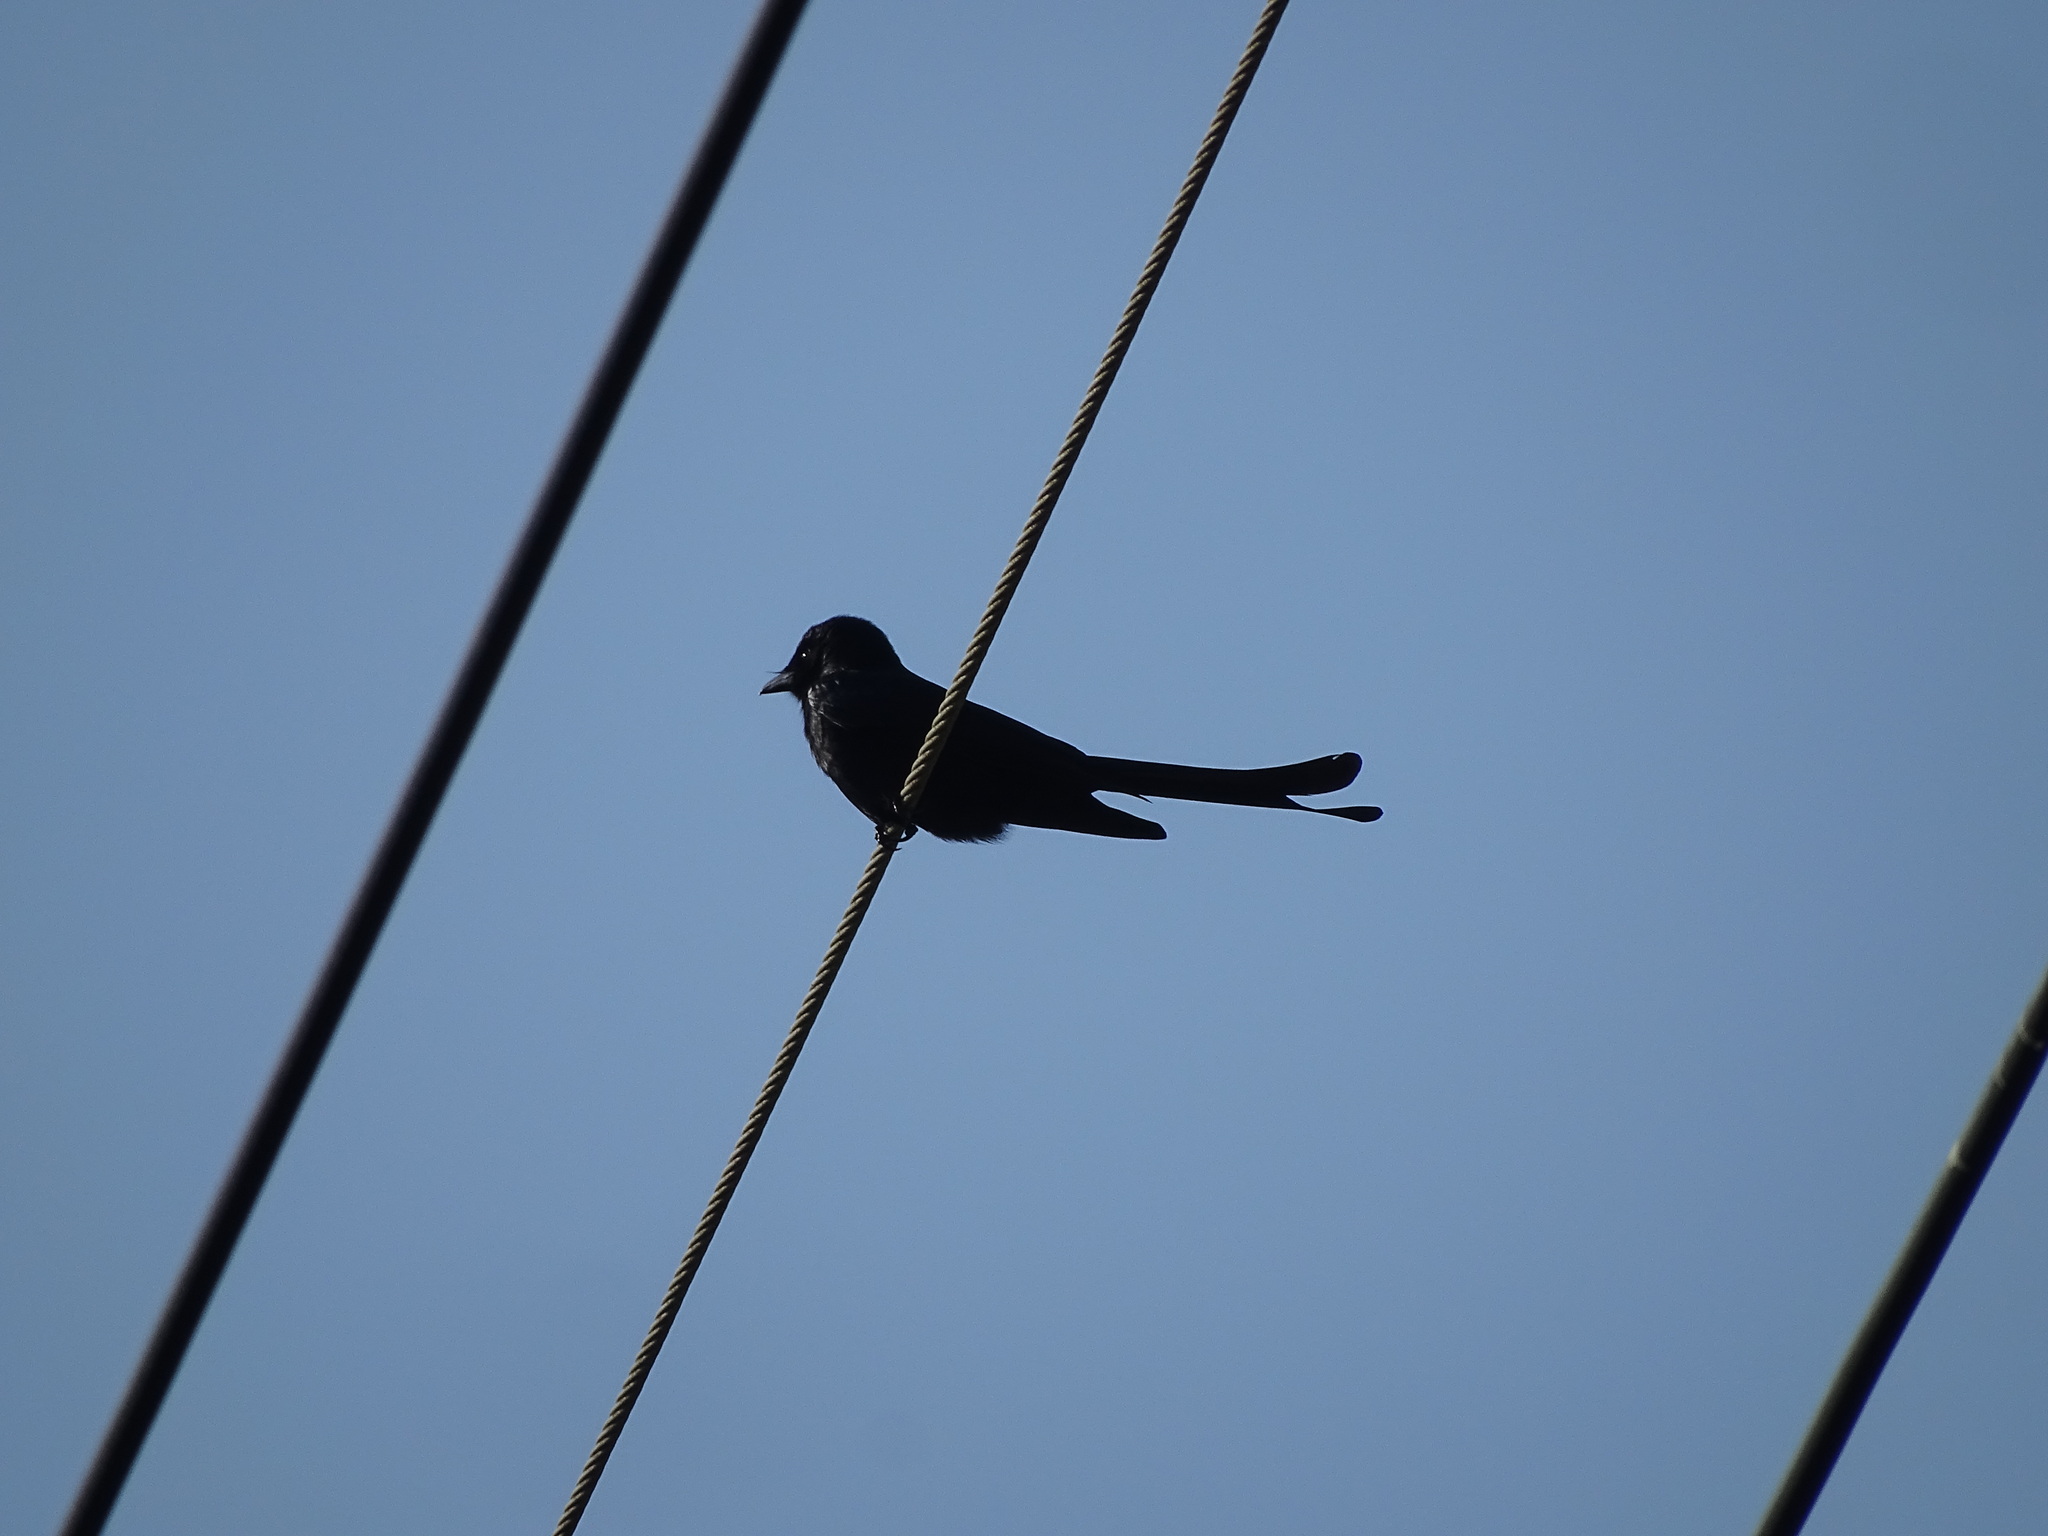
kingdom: Animalia
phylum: Chordata
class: Aves
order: Passeriformes
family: Dicruridae
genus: Dicrurus
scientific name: Dicrurus macrocercus
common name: Black drongo
